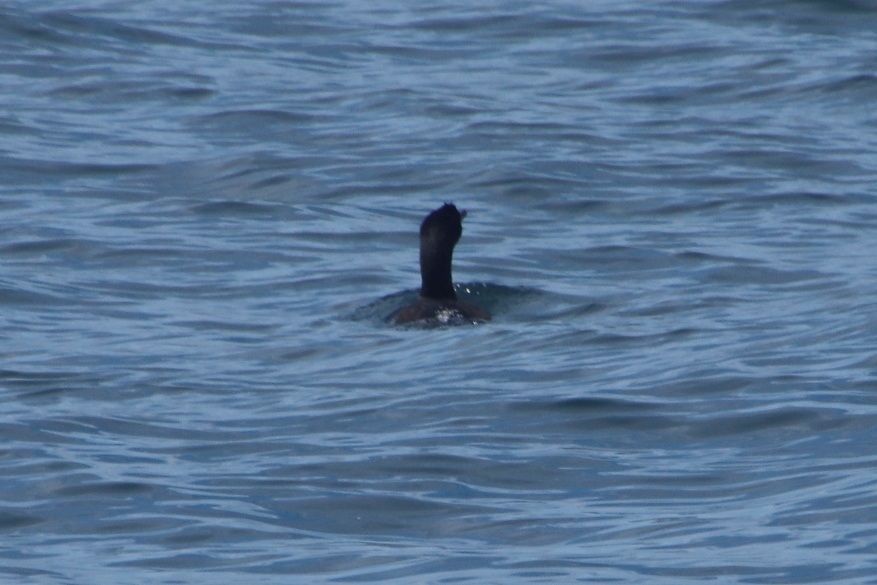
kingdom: Animalia
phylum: Chordata
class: Aves
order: Suliformes
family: Phalacrocoracidae
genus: Phalacrocorax
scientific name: Phalacrocorax neglectus
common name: Bank cormorant
